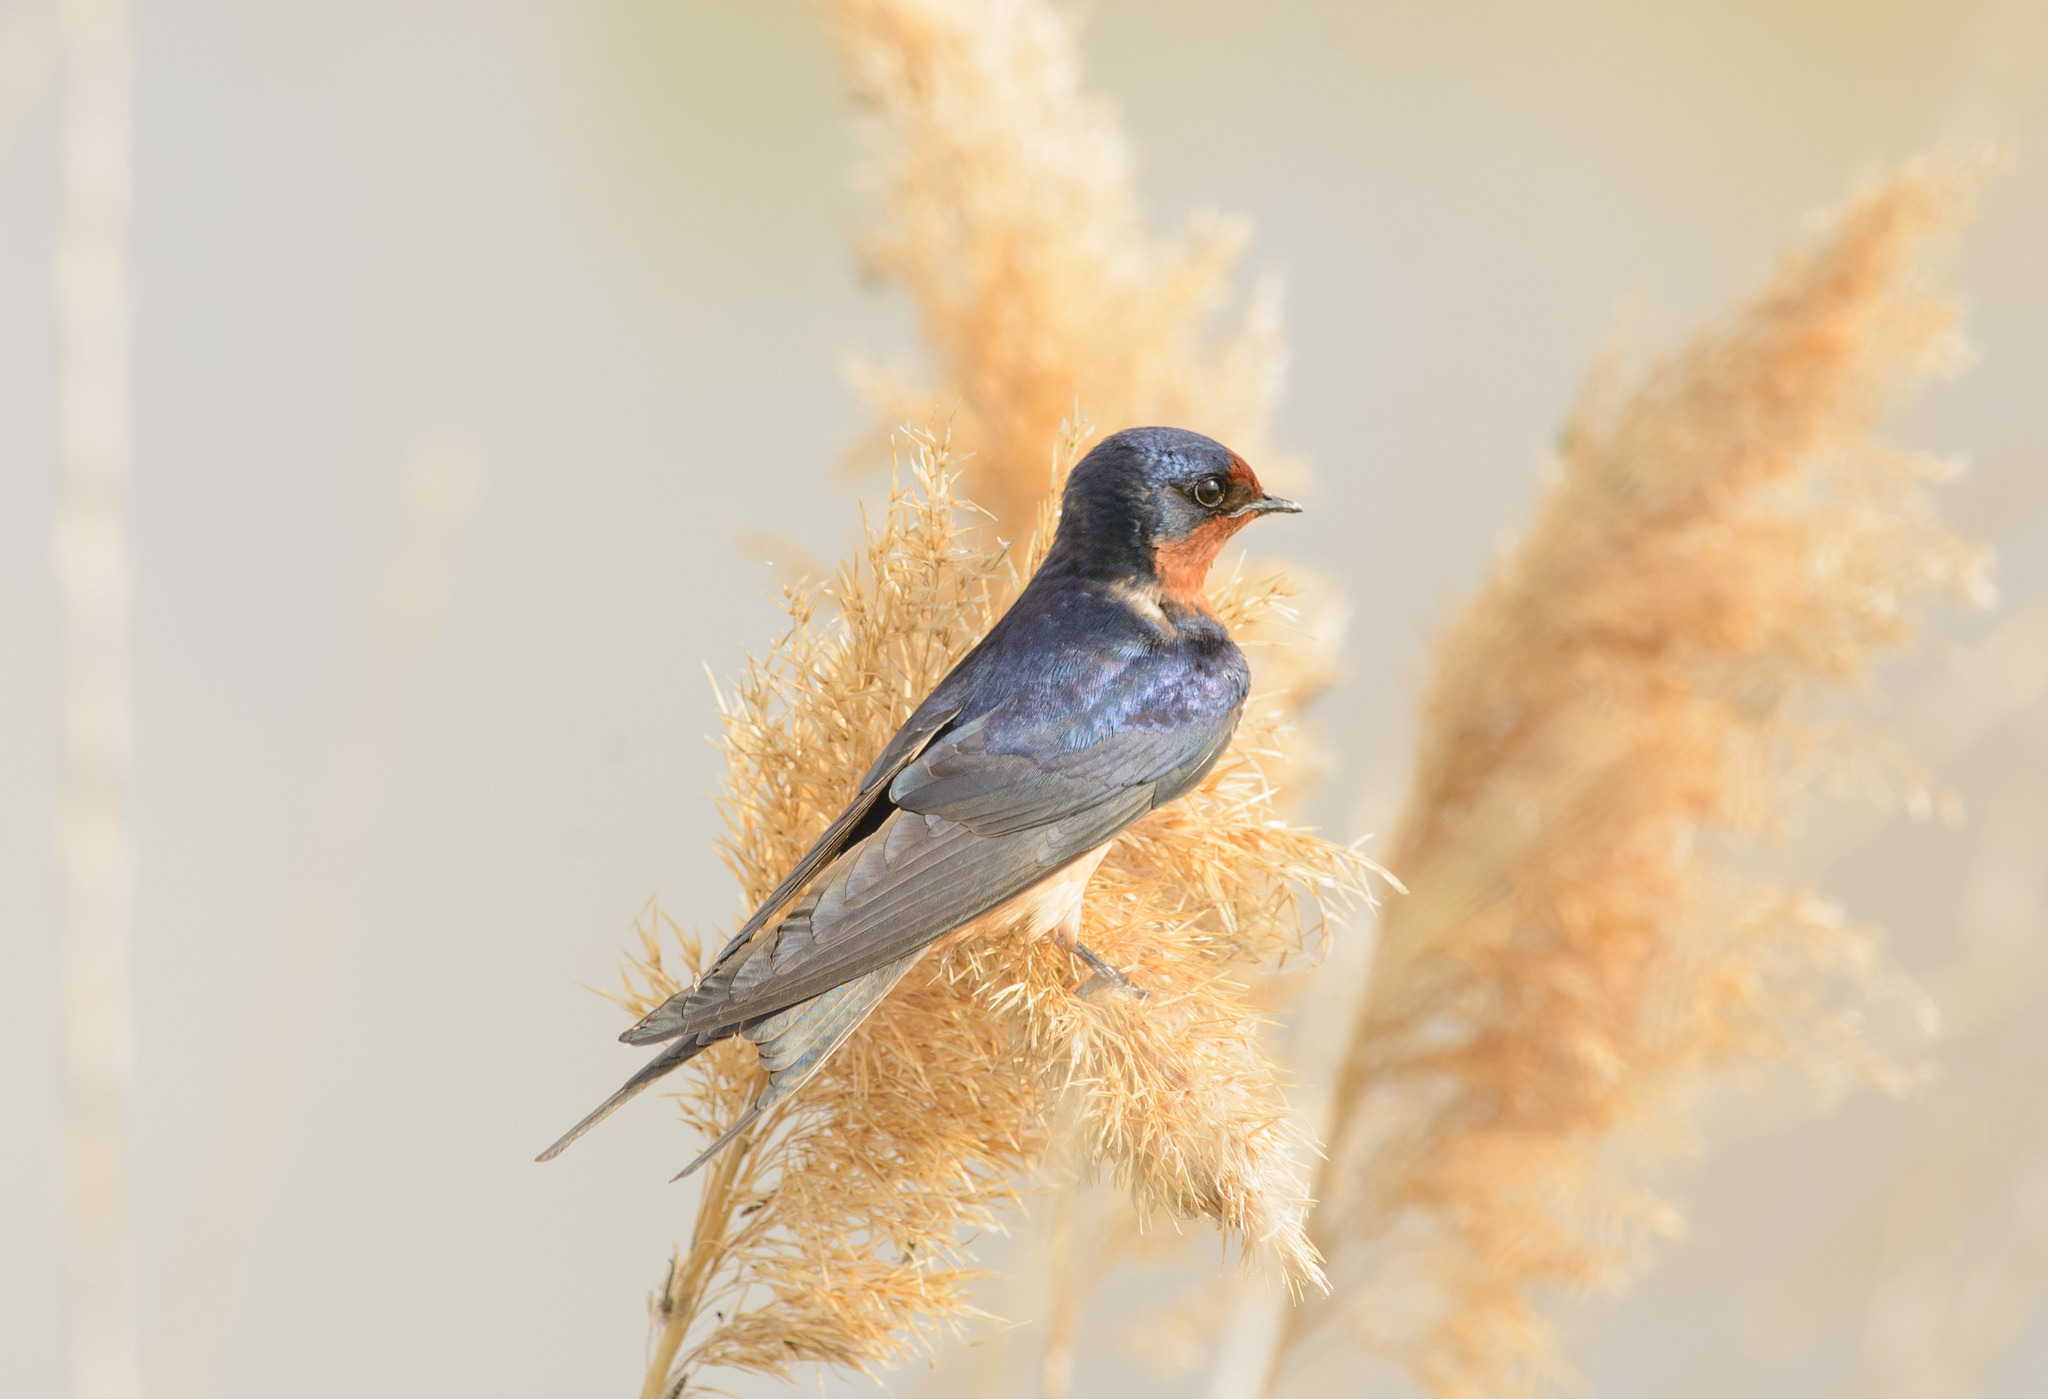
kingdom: Animalia
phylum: Chordata
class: Aves
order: Passeriformes
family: Hirundinidae
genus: Hirundo
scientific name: Hirundo rustica
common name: Barn swallow
